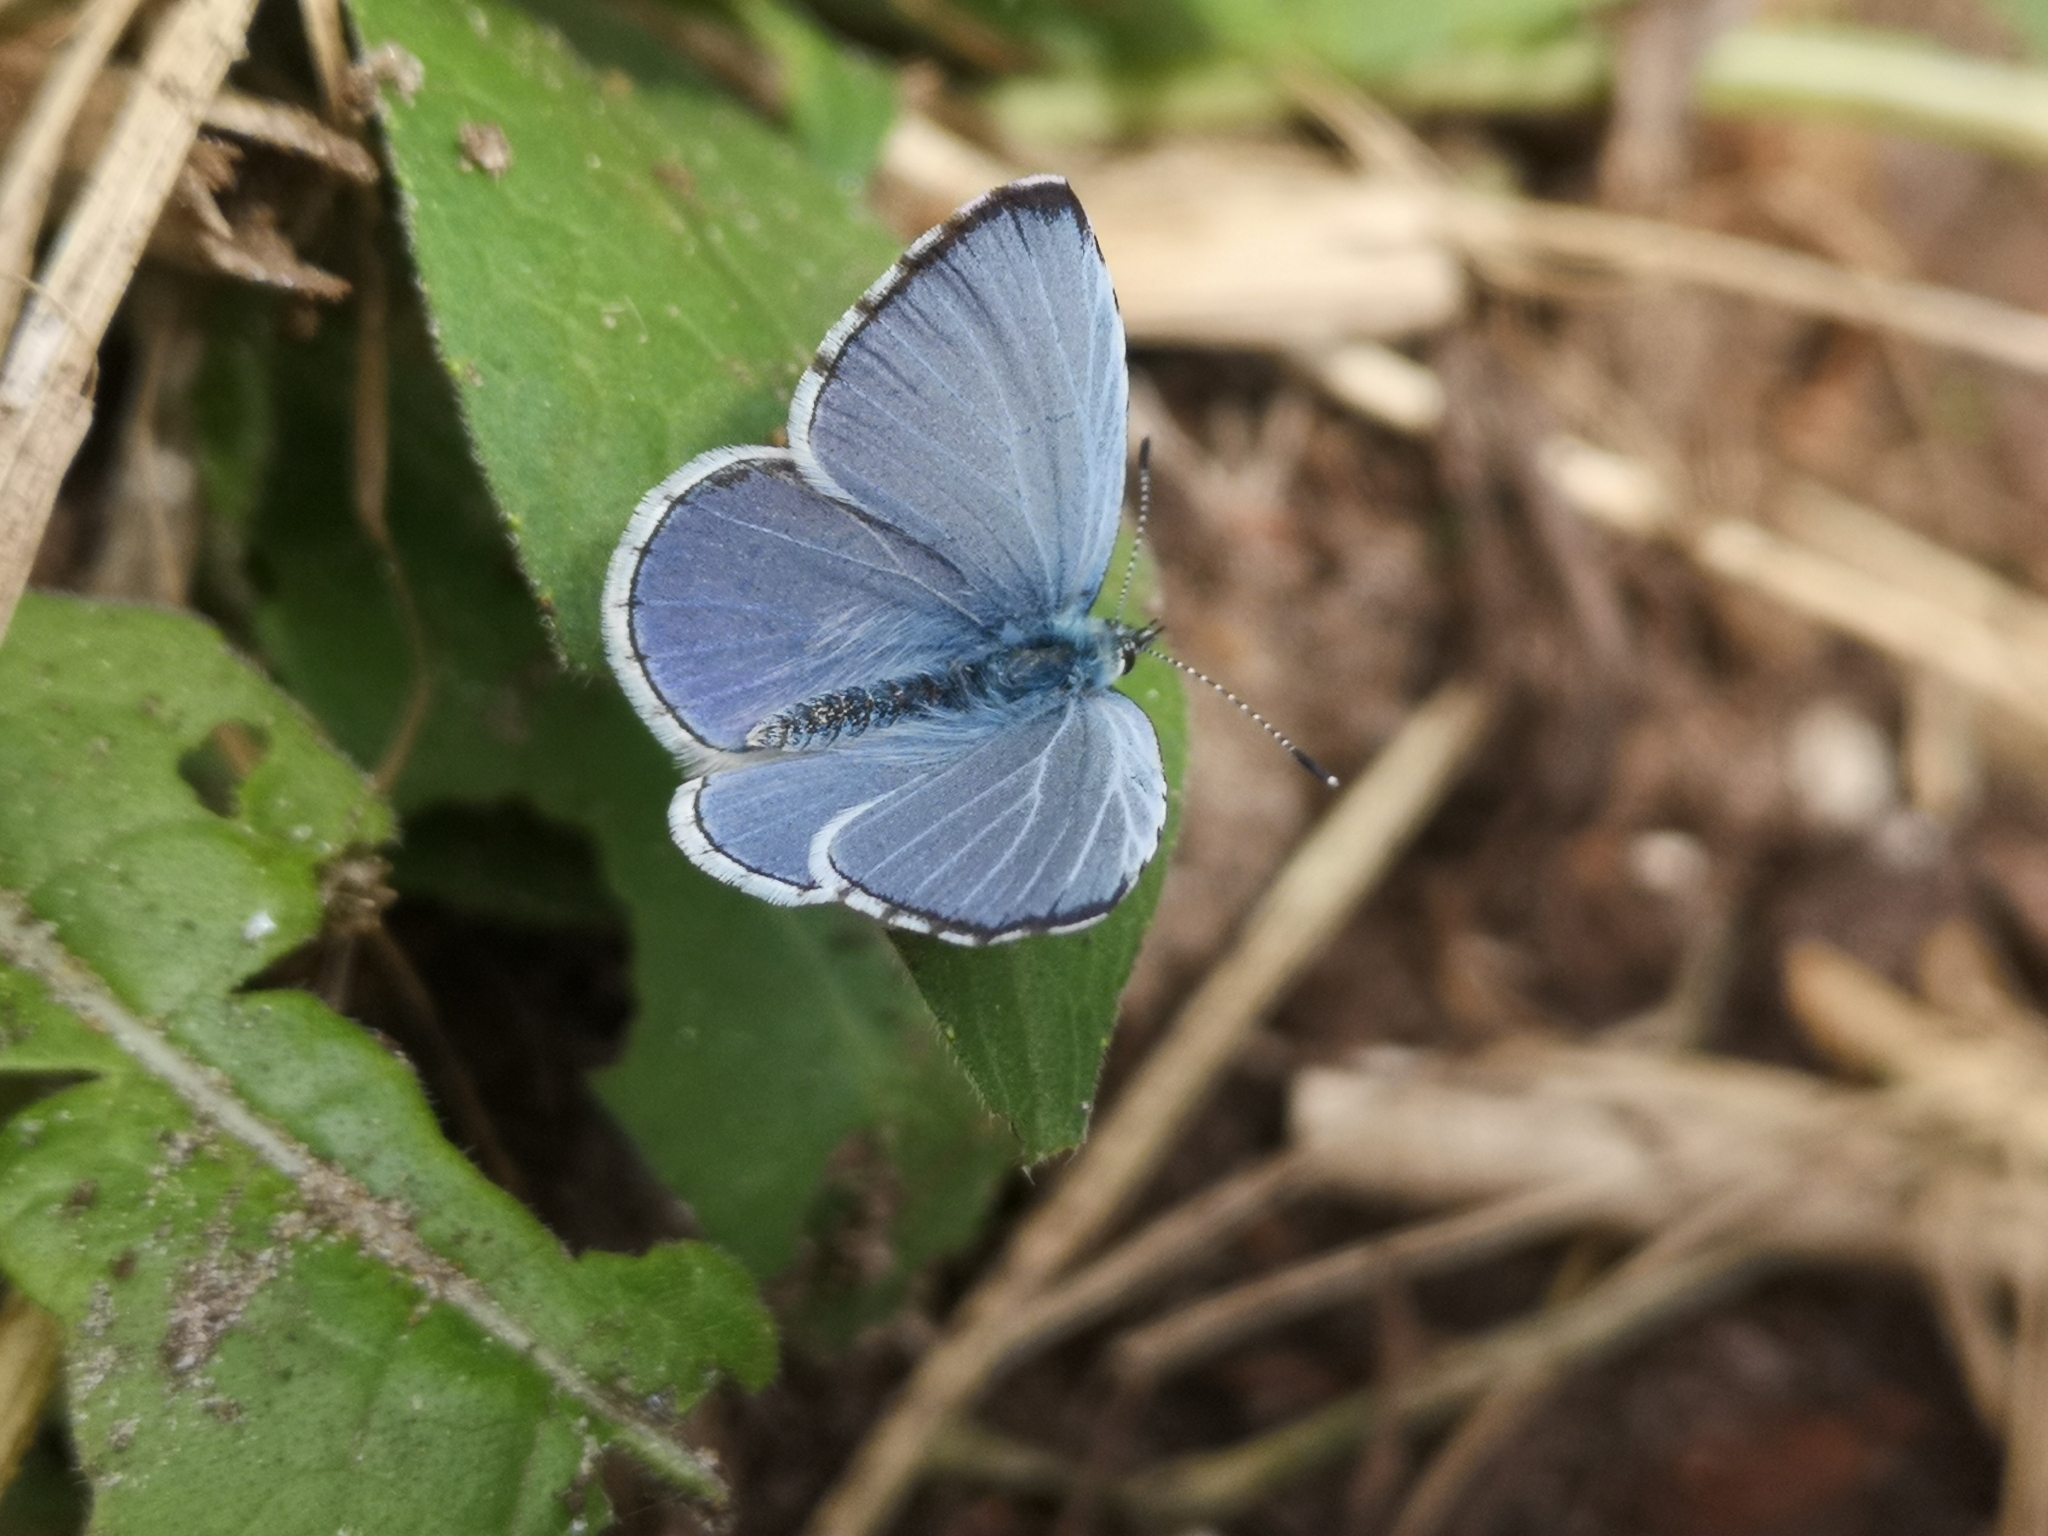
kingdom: Animalia
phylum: Arthropoda
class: Insecta
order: Lepidoptera
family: Lycaenidae
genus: Celastrina
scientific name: Celastrina argiolus
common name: Holly blue
